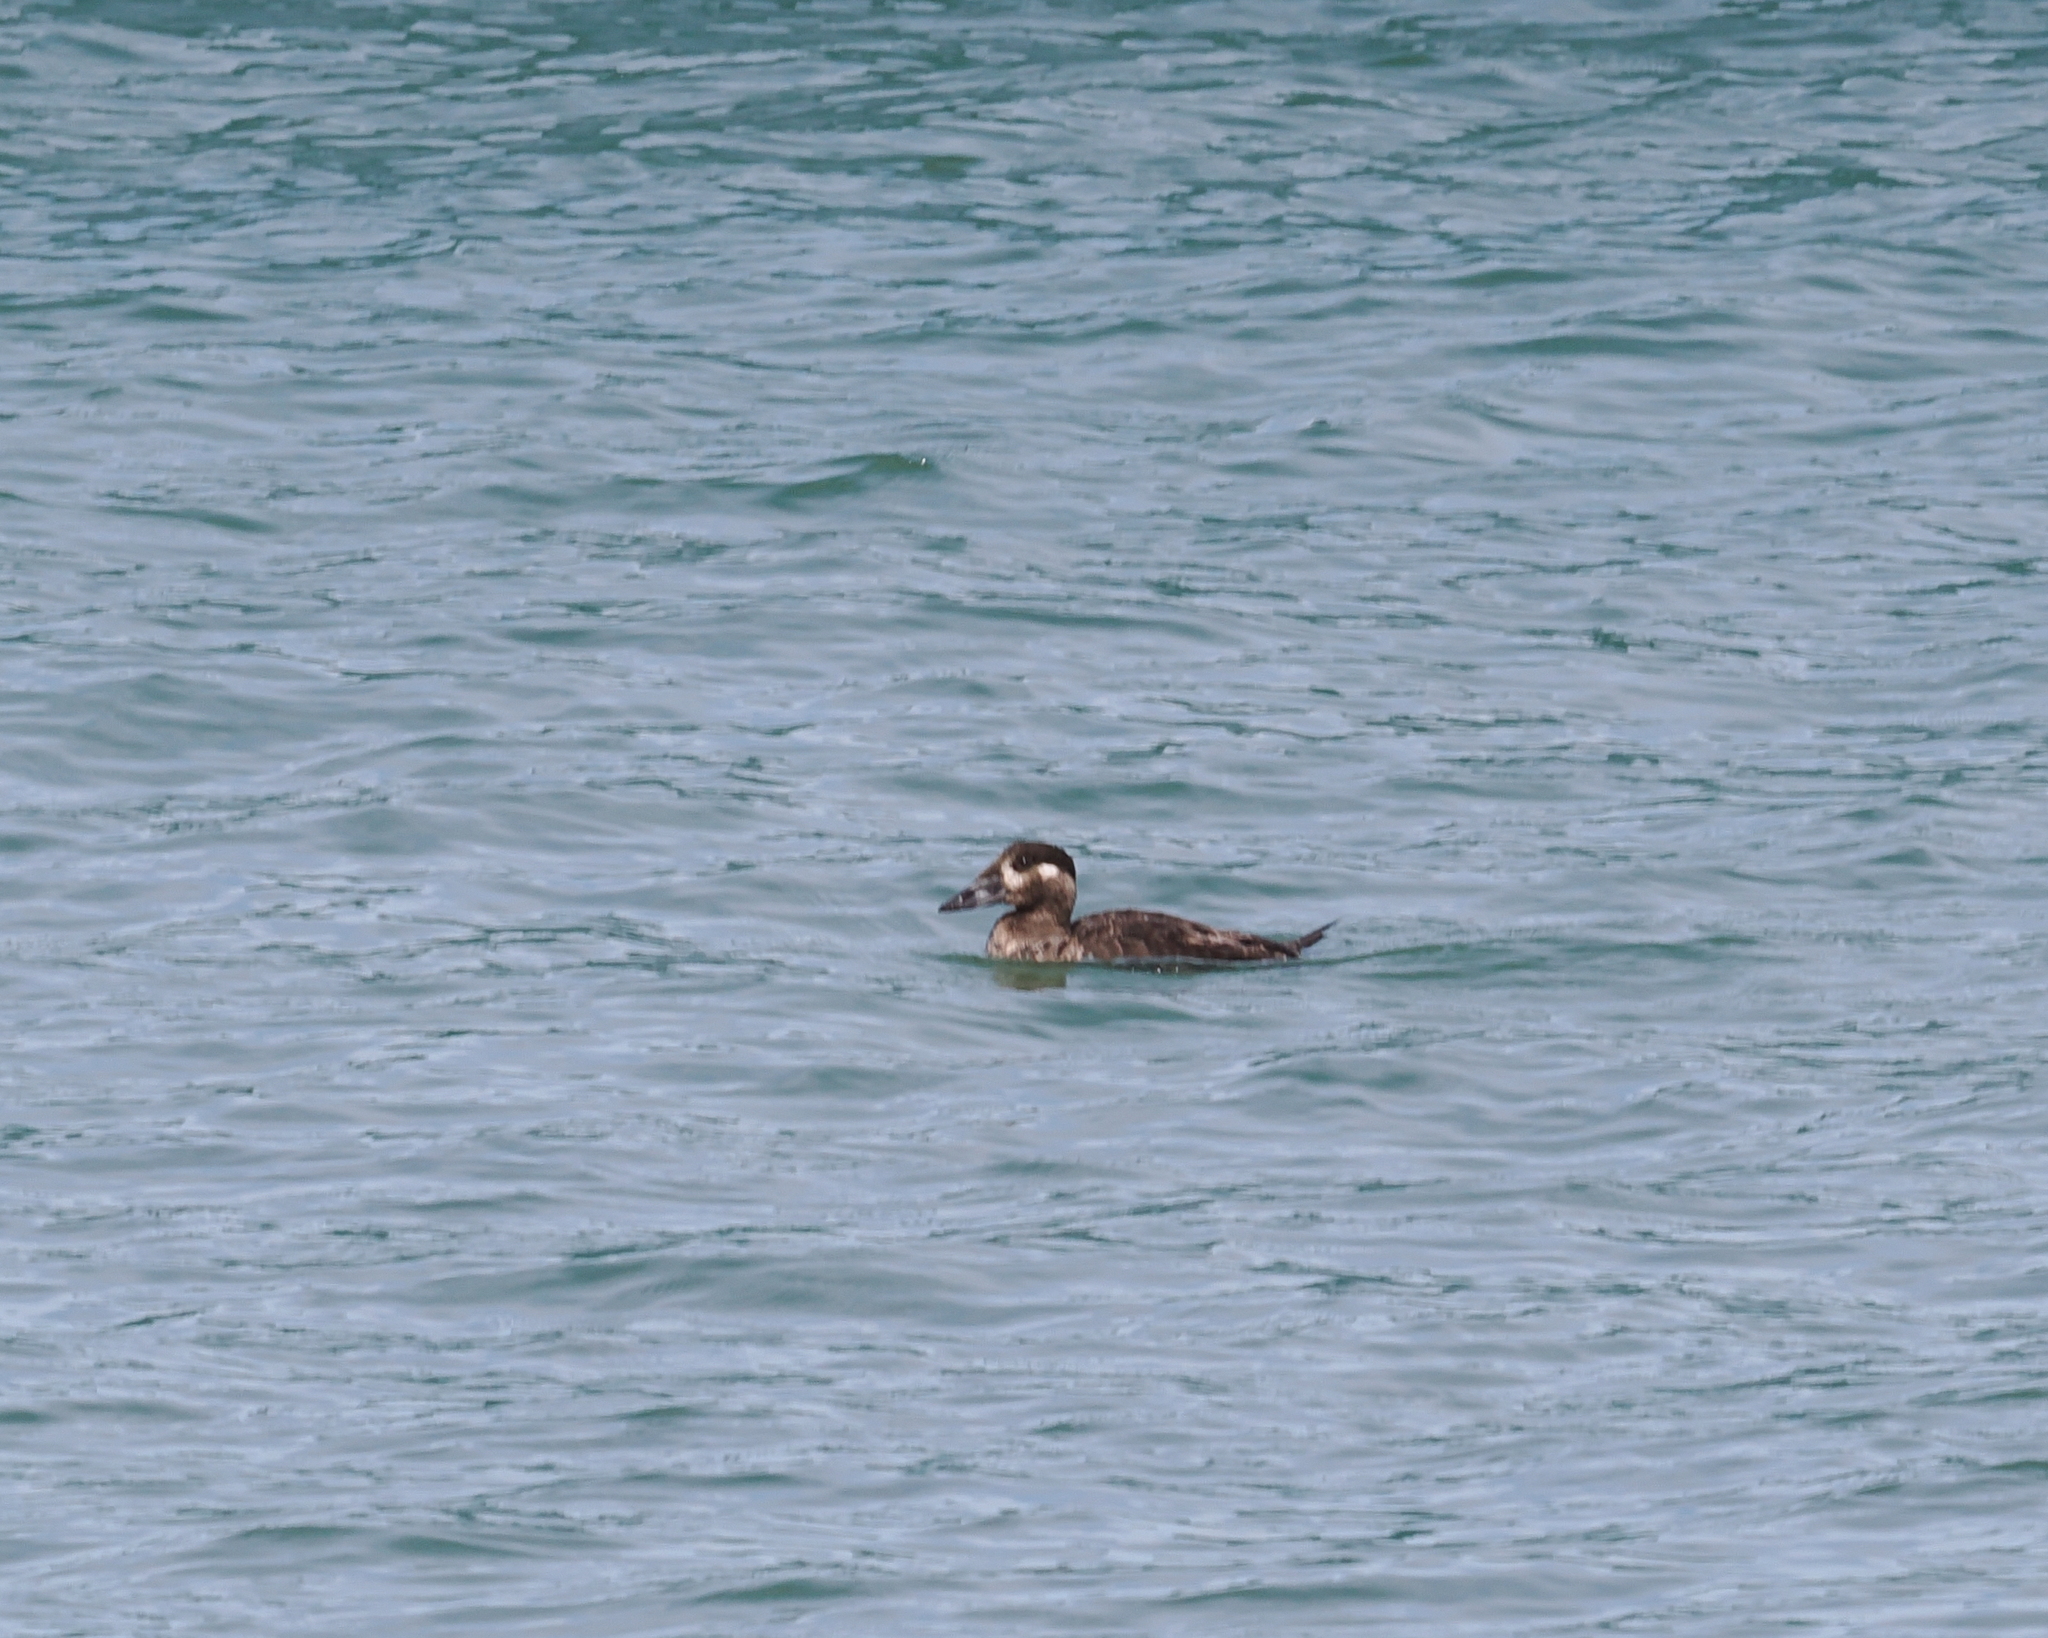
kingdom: Animalia
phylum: Chordata
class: Aves
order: Anseriformes
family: Anatidae
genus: Melanitta
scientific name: Melanitta perspicillata
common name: Surf scoter
